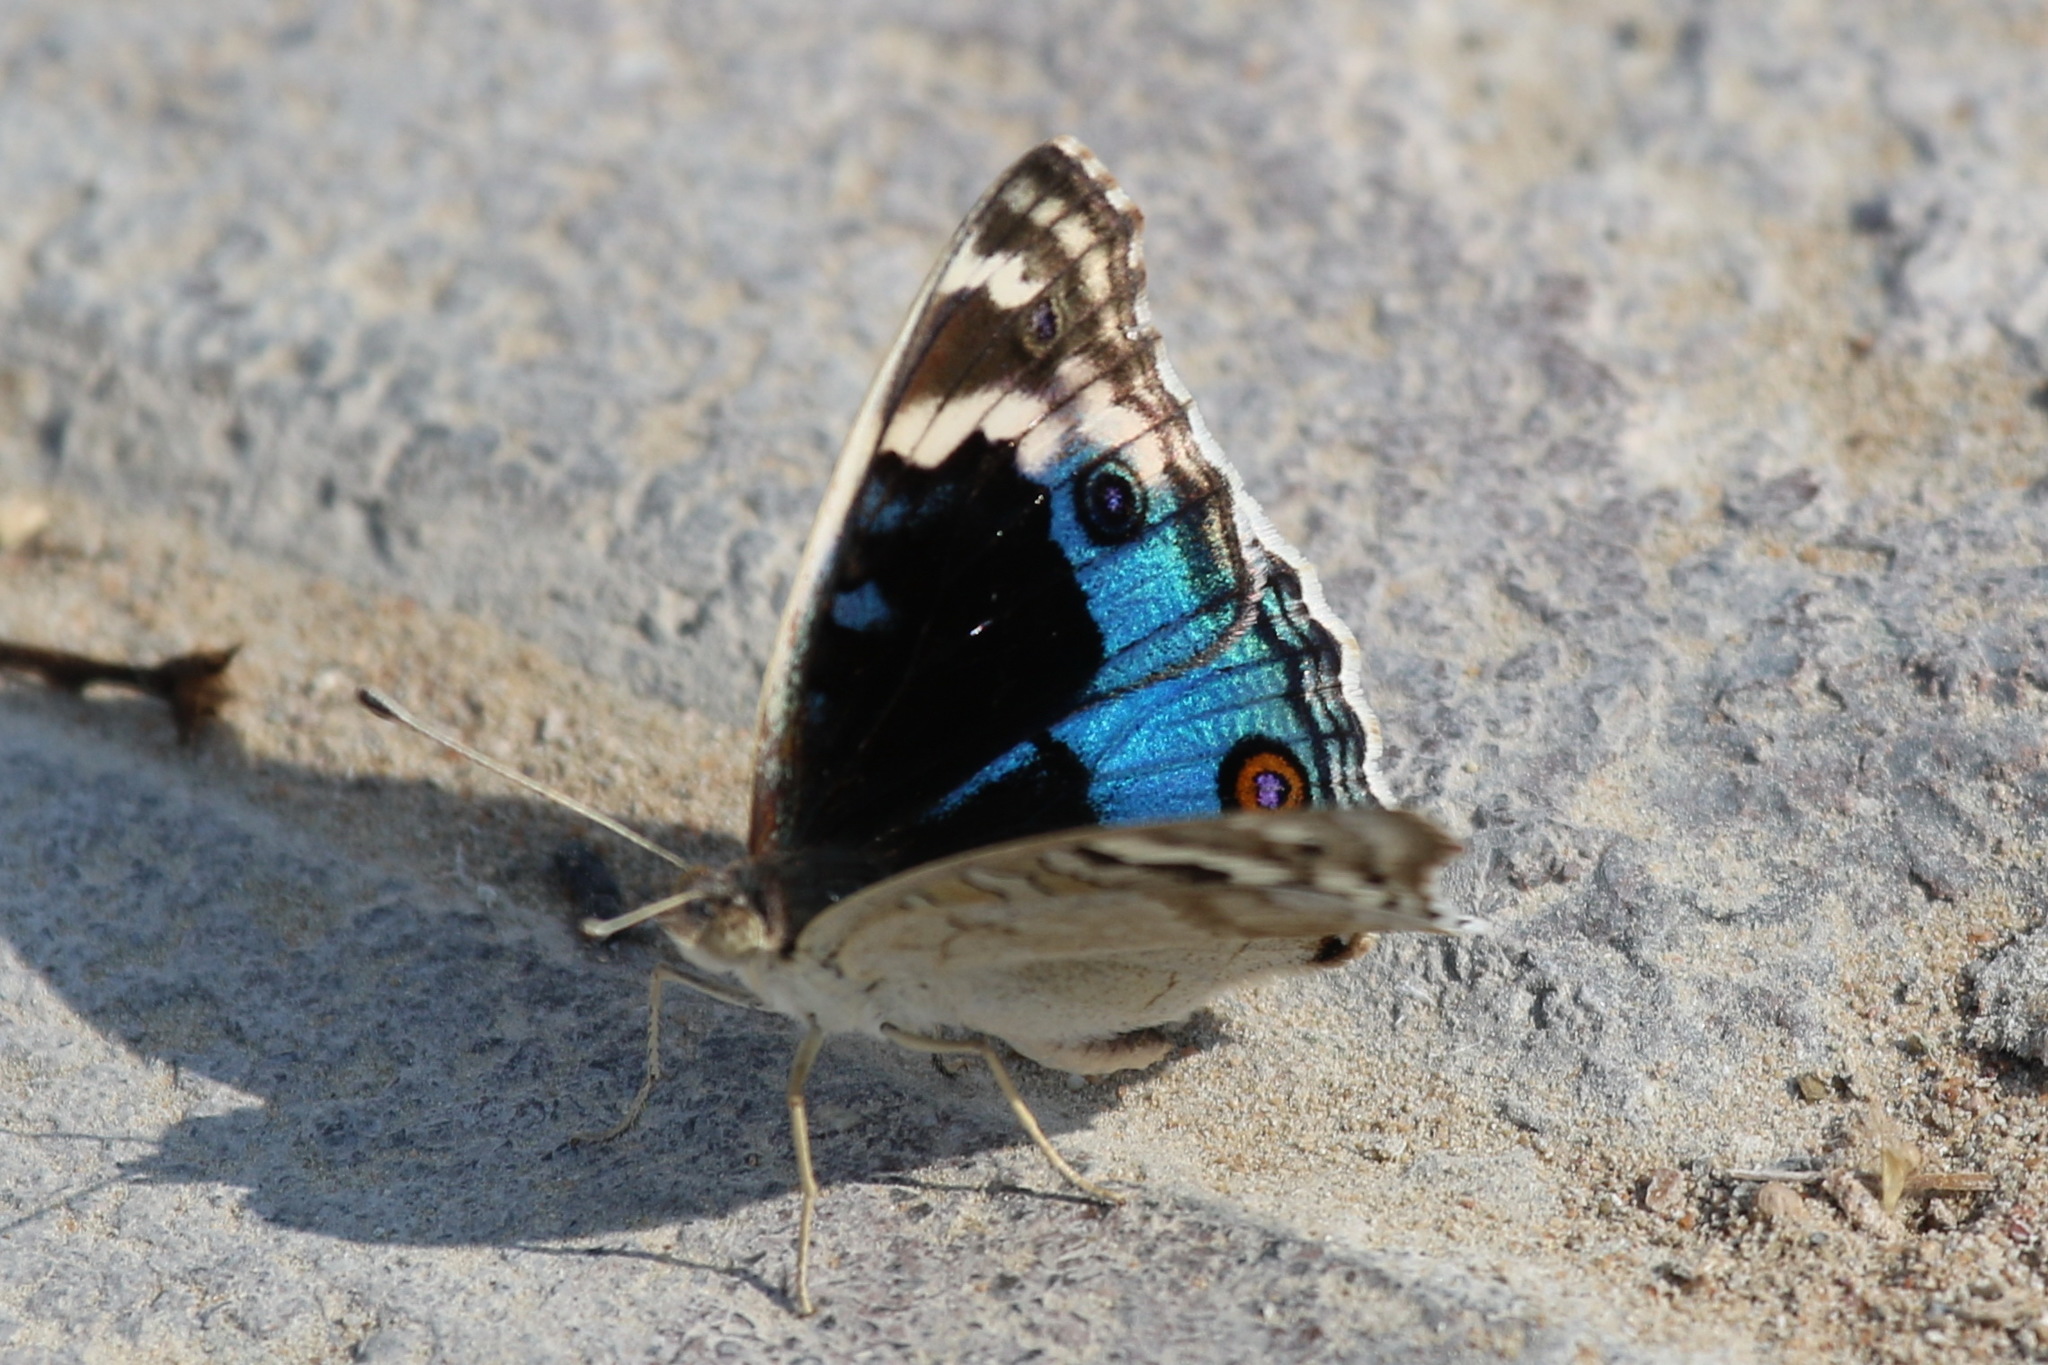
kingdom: Animalia
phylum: Arthropoda
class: Insecta
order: Lepidoptera
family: Nymphalidae
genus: Junonia
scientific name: Junonia orithya
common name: Blue pansy
